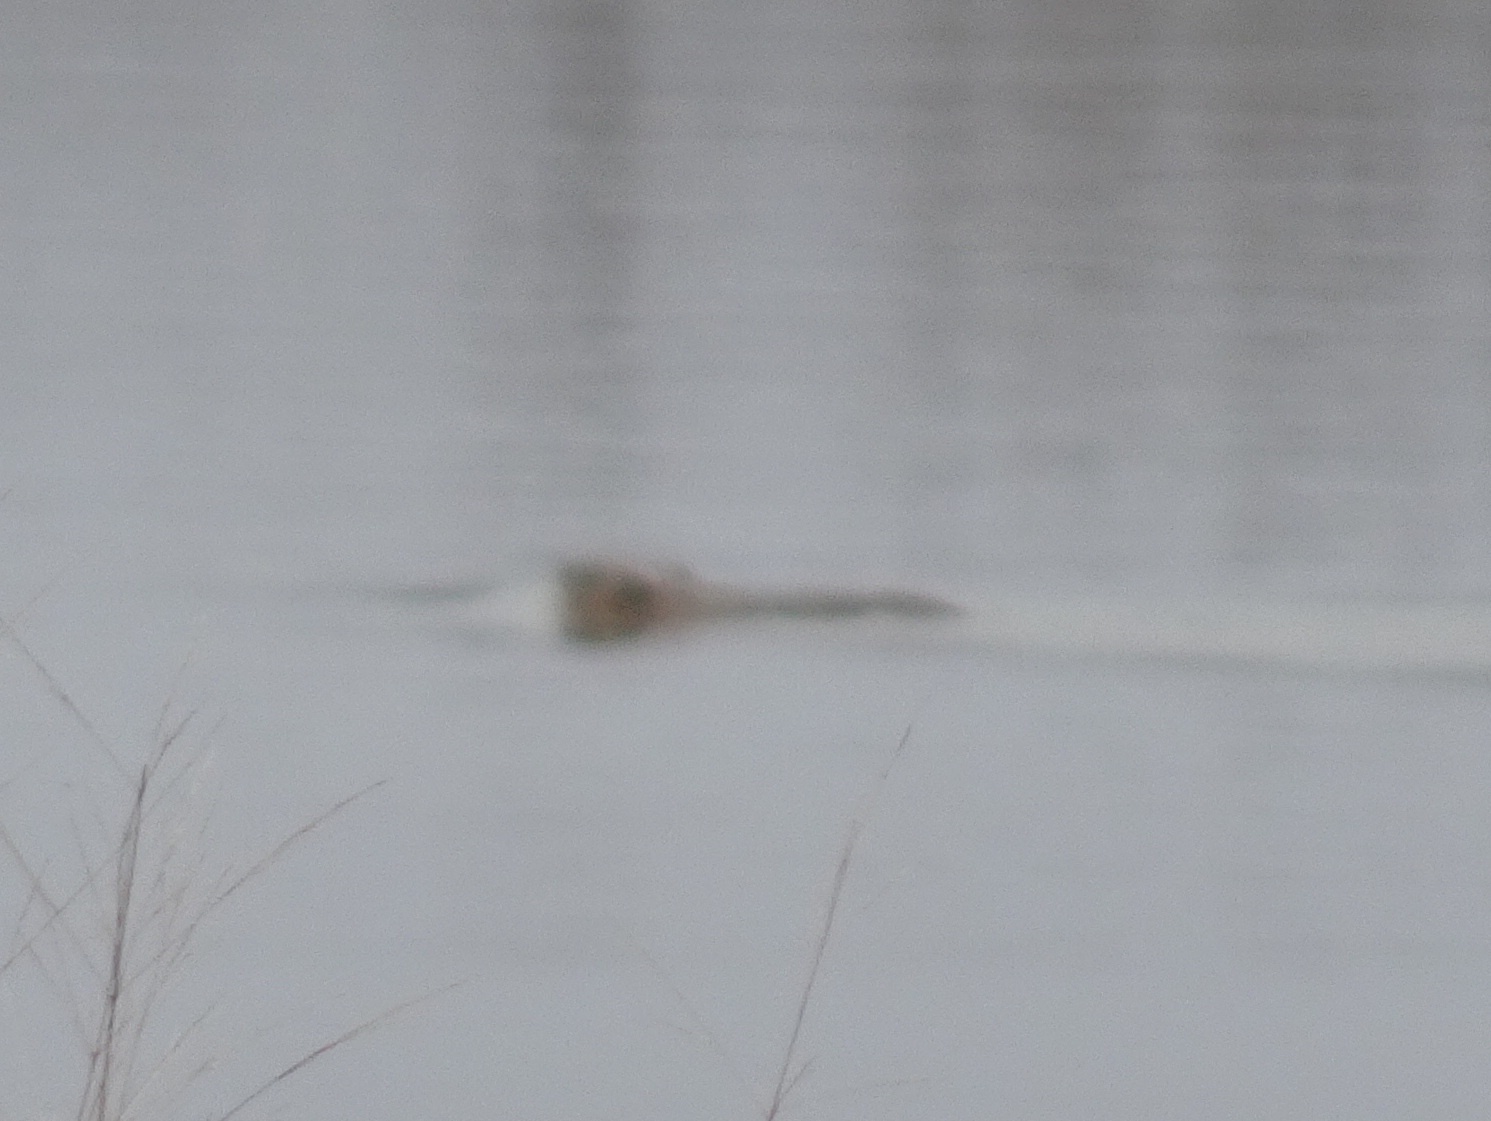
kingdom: Animalia
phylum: Chordata
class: Mammalia
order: Rodentia
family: Cricetidae
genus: Ondatra
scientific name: Ondatra zibethicus
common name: Muskrat
